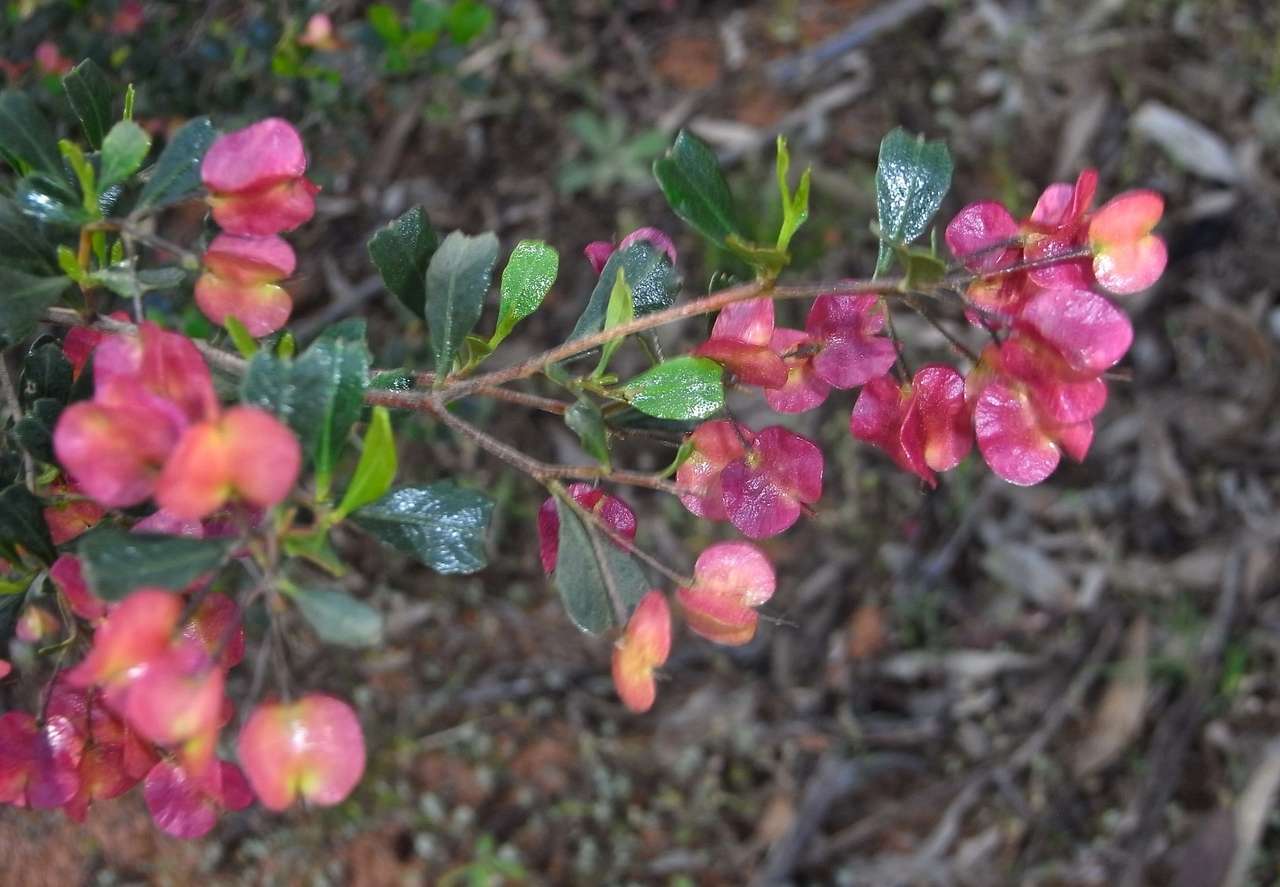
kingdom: Plantae
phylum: Tracheophyta
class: Magnoliopsida
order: Sapindales
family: Sapindaceae
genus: Dodonaea
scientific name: Dodonaea viscosa
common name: Hopbush
